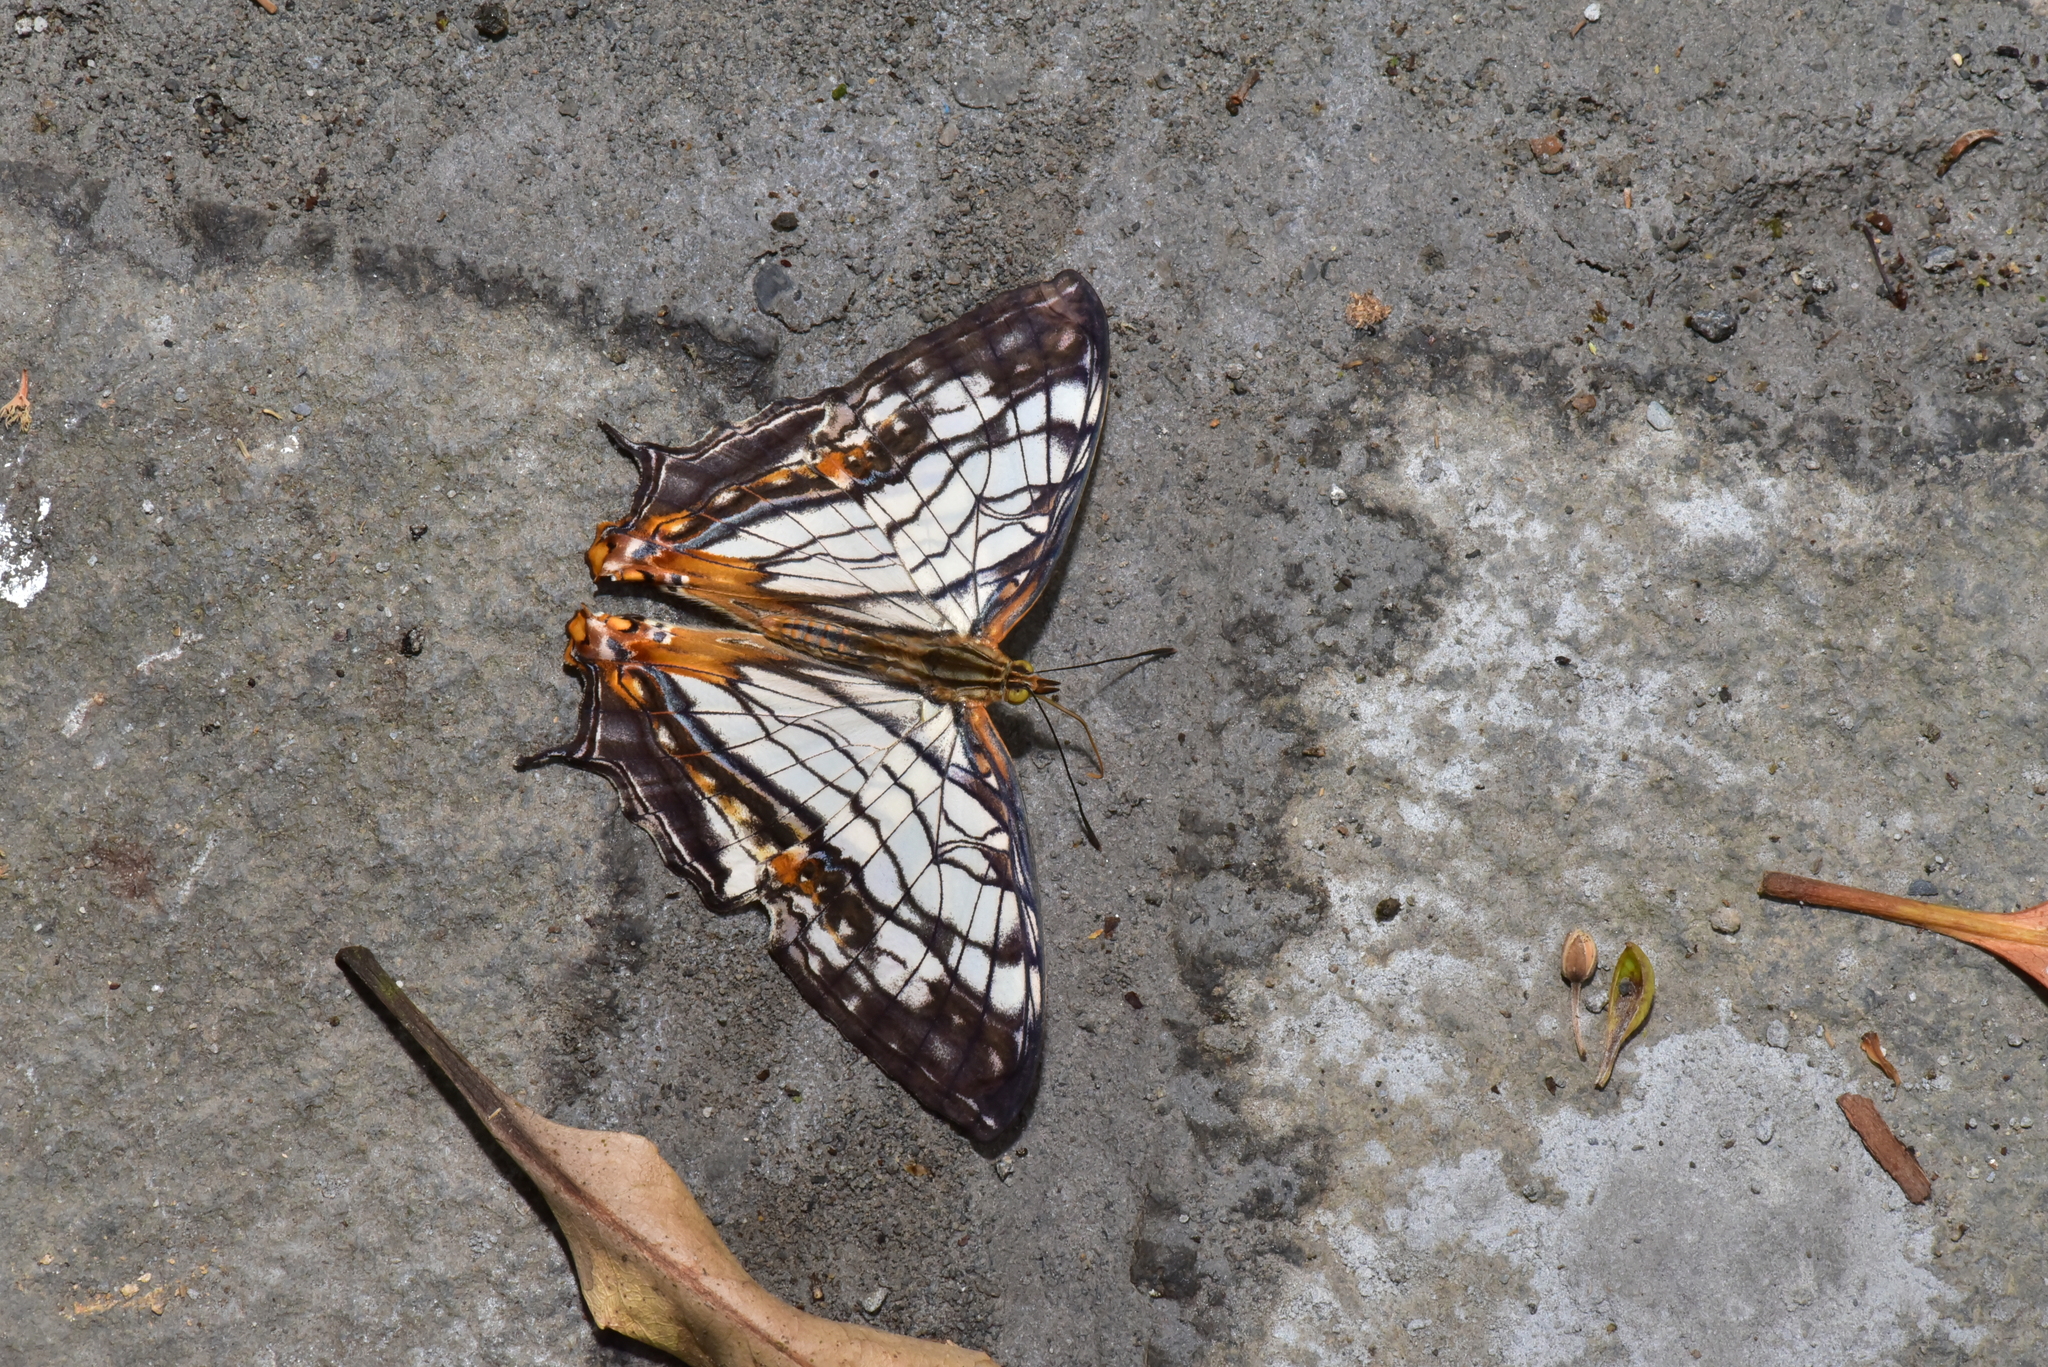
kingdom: Animalia
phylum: Arthropoda
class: Insecta
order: Lepidoptera
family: Nymphalidae
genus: Cyrestis
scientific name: Cyrestis thyodamas
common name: Common mapwing
